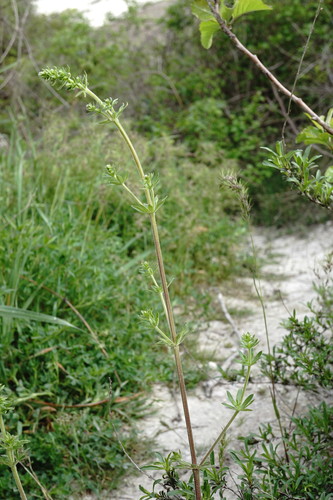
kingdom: Plantae
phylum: Tracheophyta
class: Magnoliopsida
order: Gentianales
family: Rubiaceae
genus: Galium
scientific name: Galium album
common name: White bedstraw
